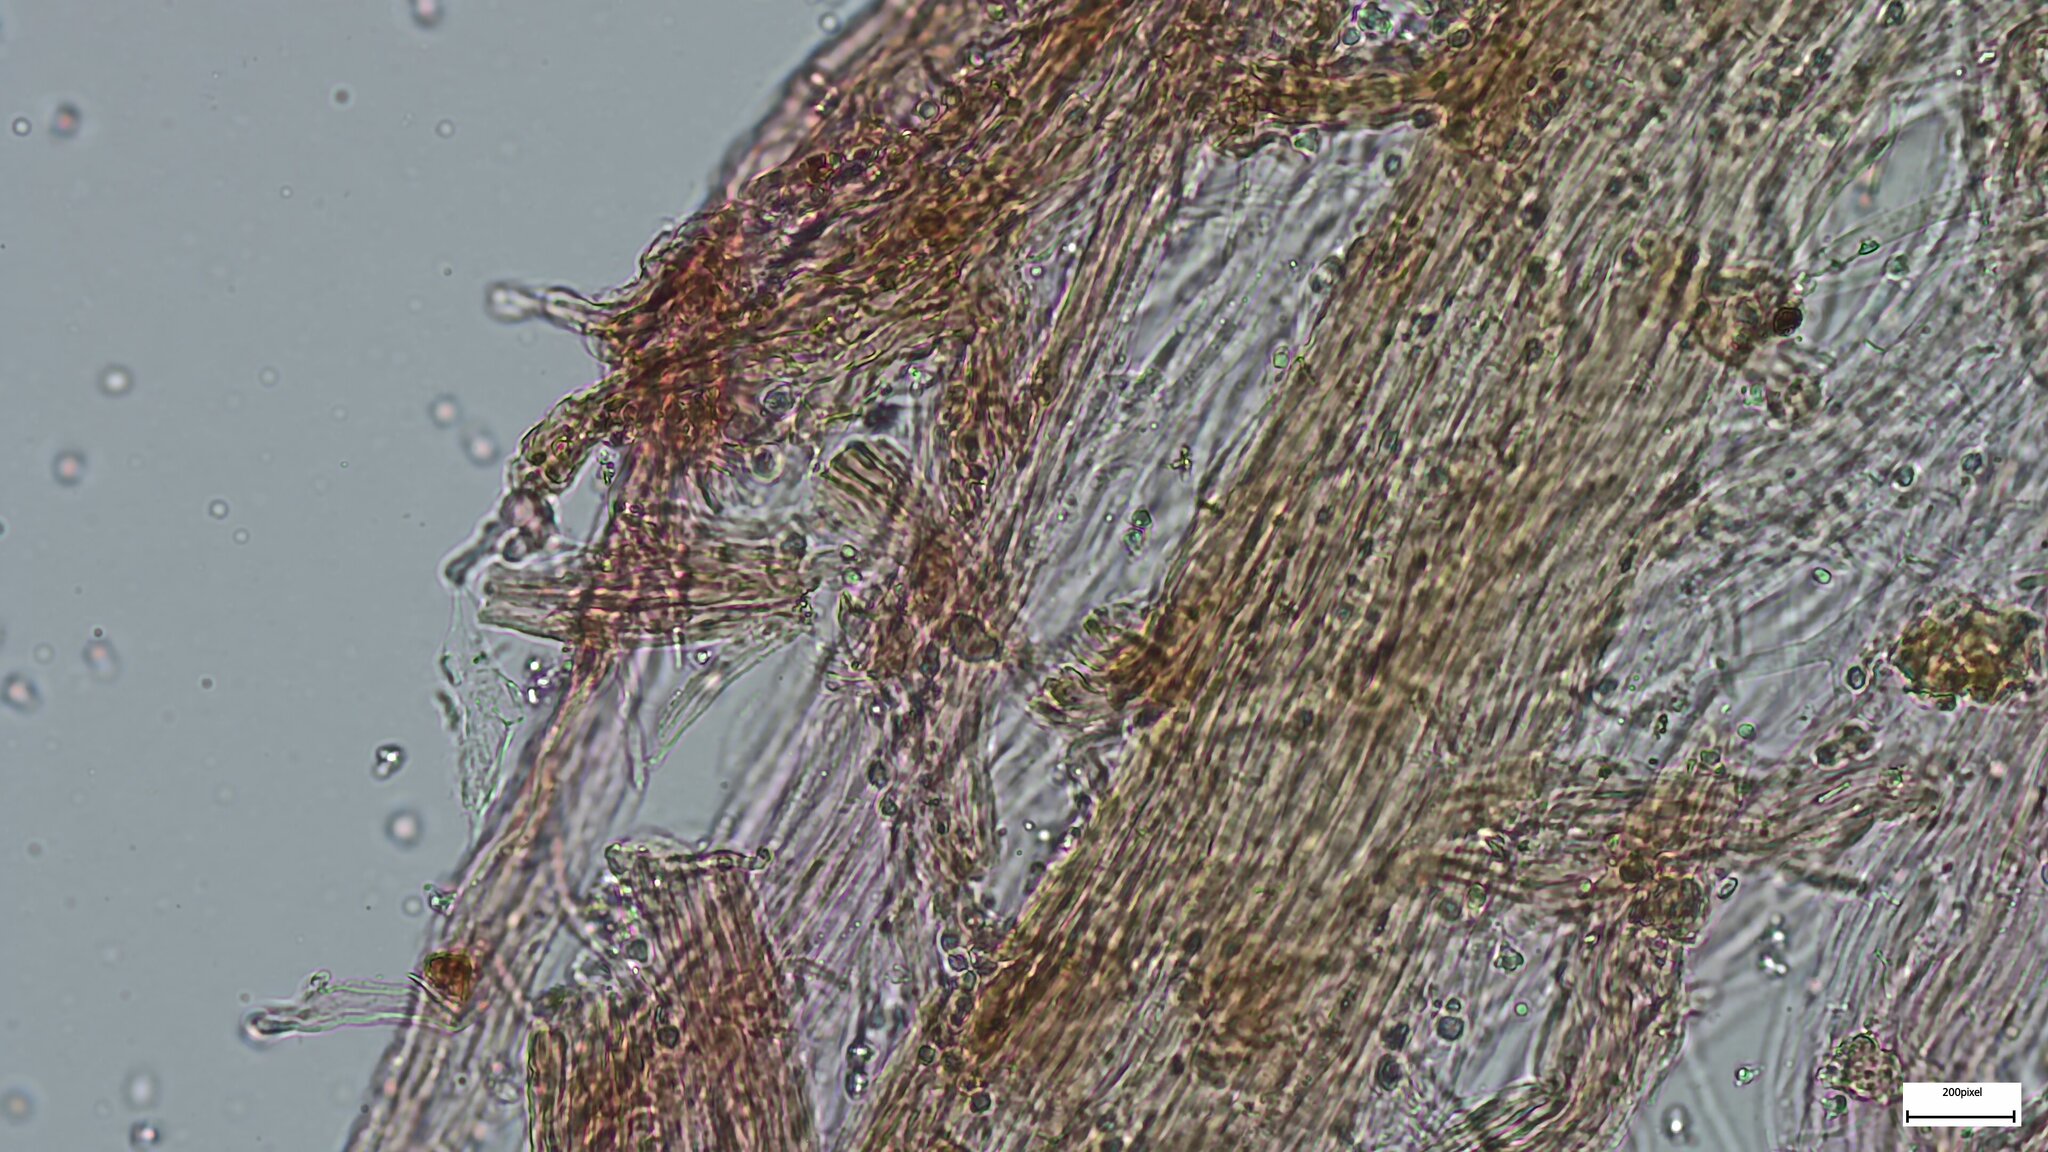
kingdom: Fungi
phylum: Basidiomycota
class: Agaricomycetes
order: Agaricales
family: Tricholomataceae
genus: Tricholosporum
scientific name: Tricholosporum porphyrophyllum
